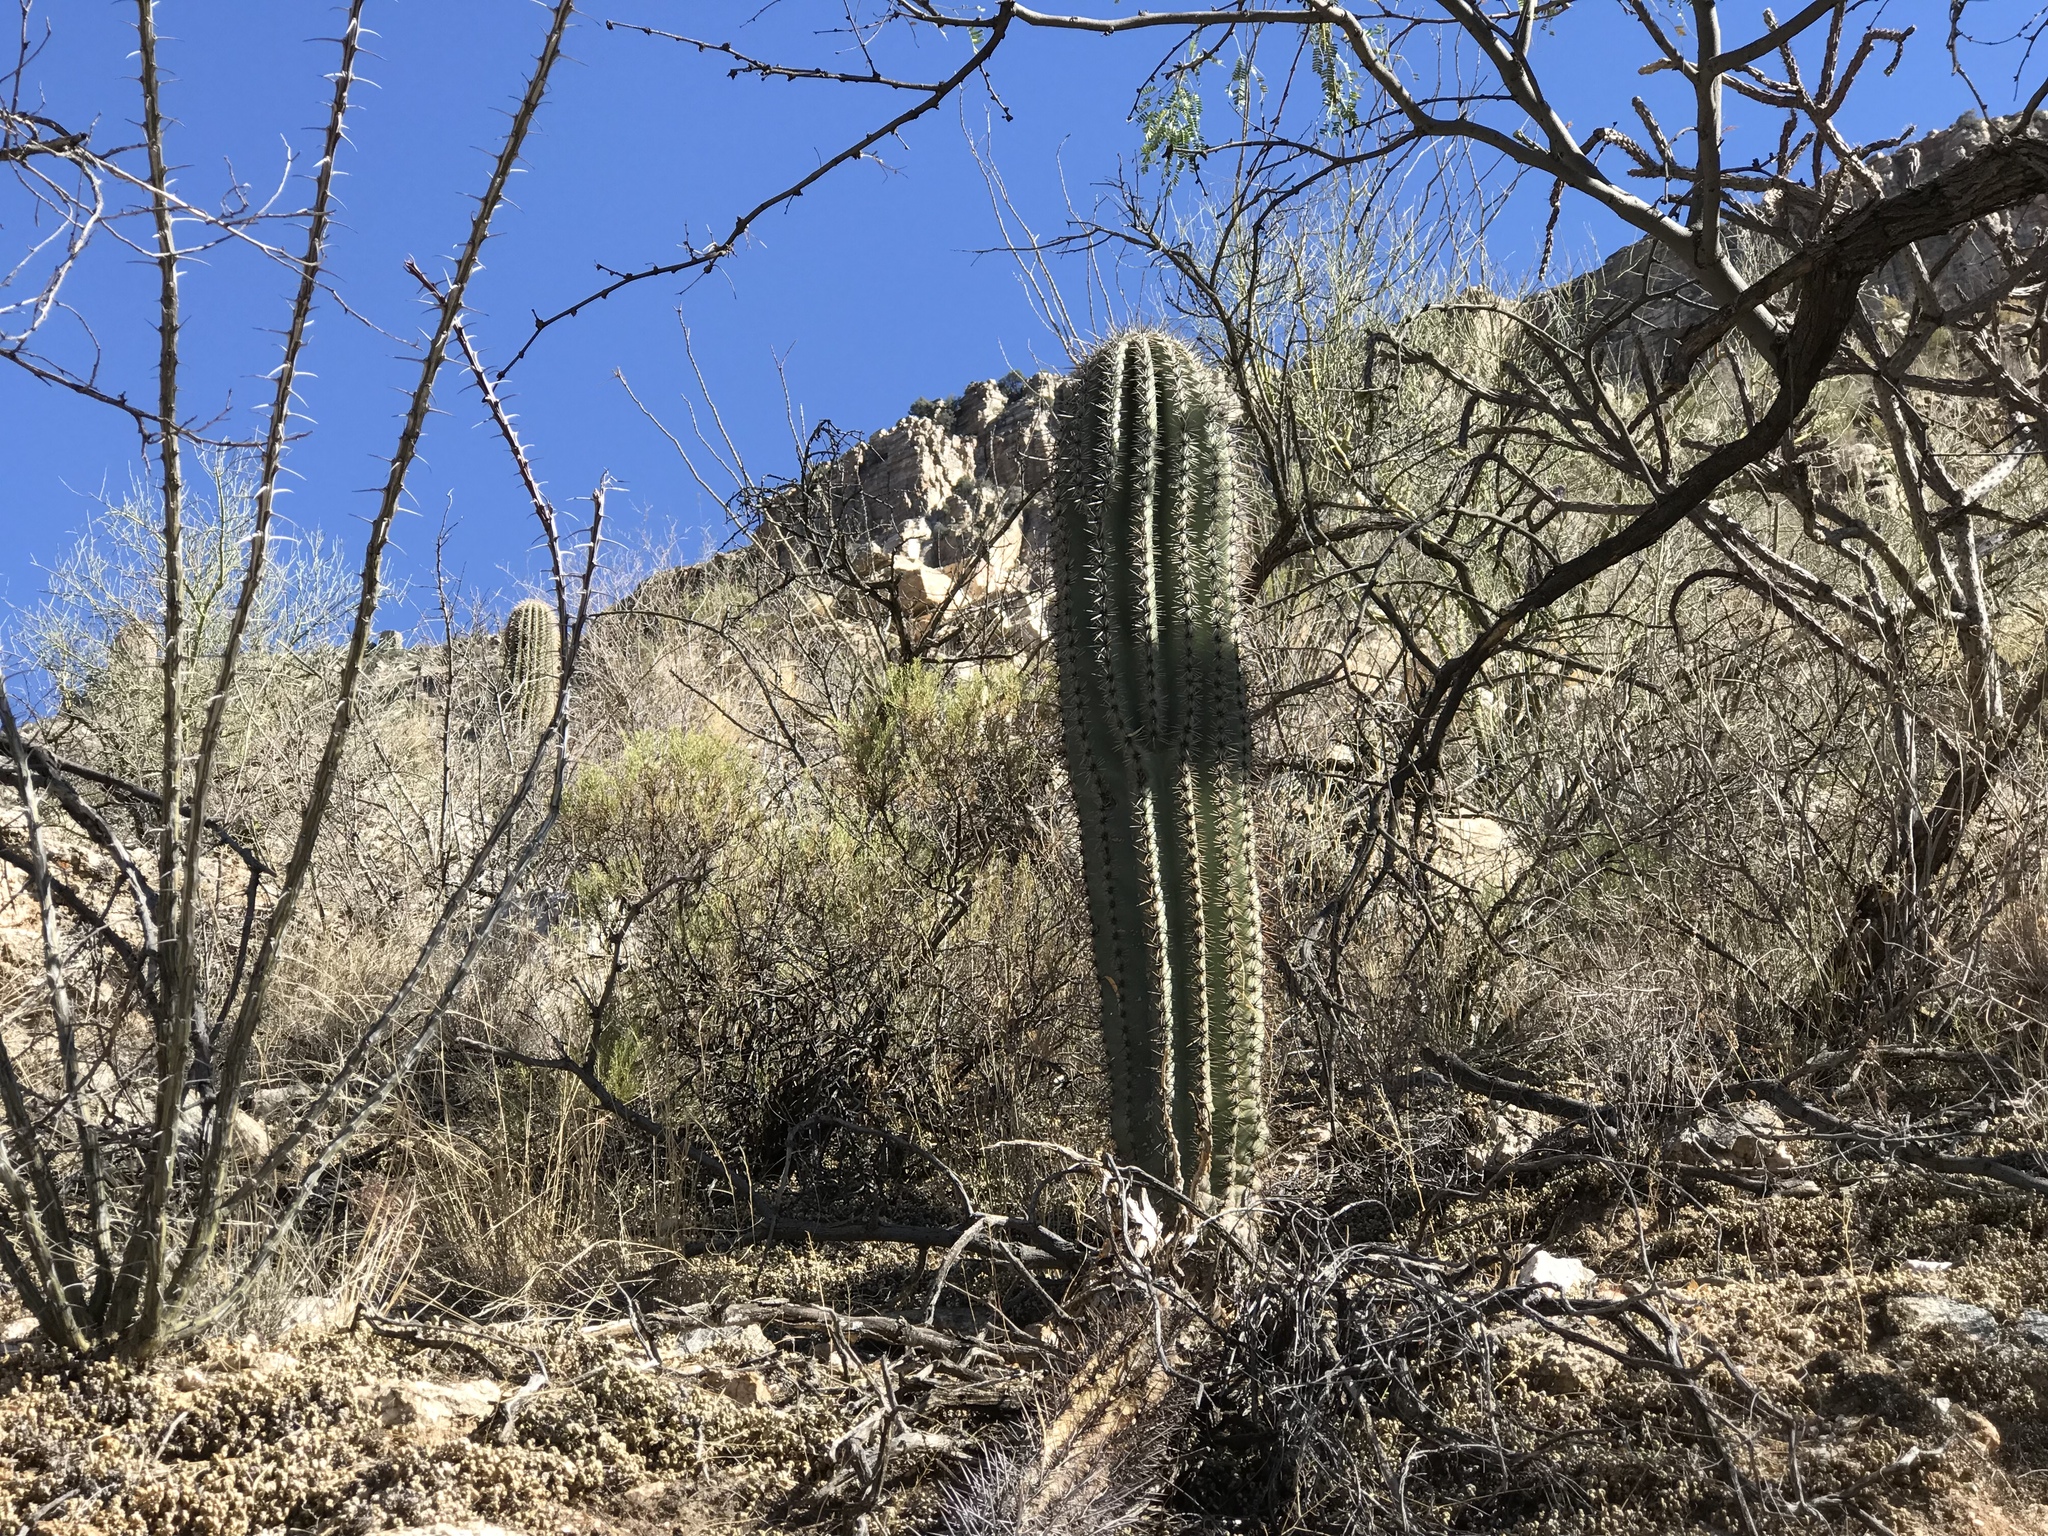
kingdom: Plantae
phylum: Tracheophyta
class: Magnoliopsida
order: Caryophyllales
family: Cactaceae
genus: Carnegiea
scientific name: Carnegiea gigantea
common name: Saguaro
